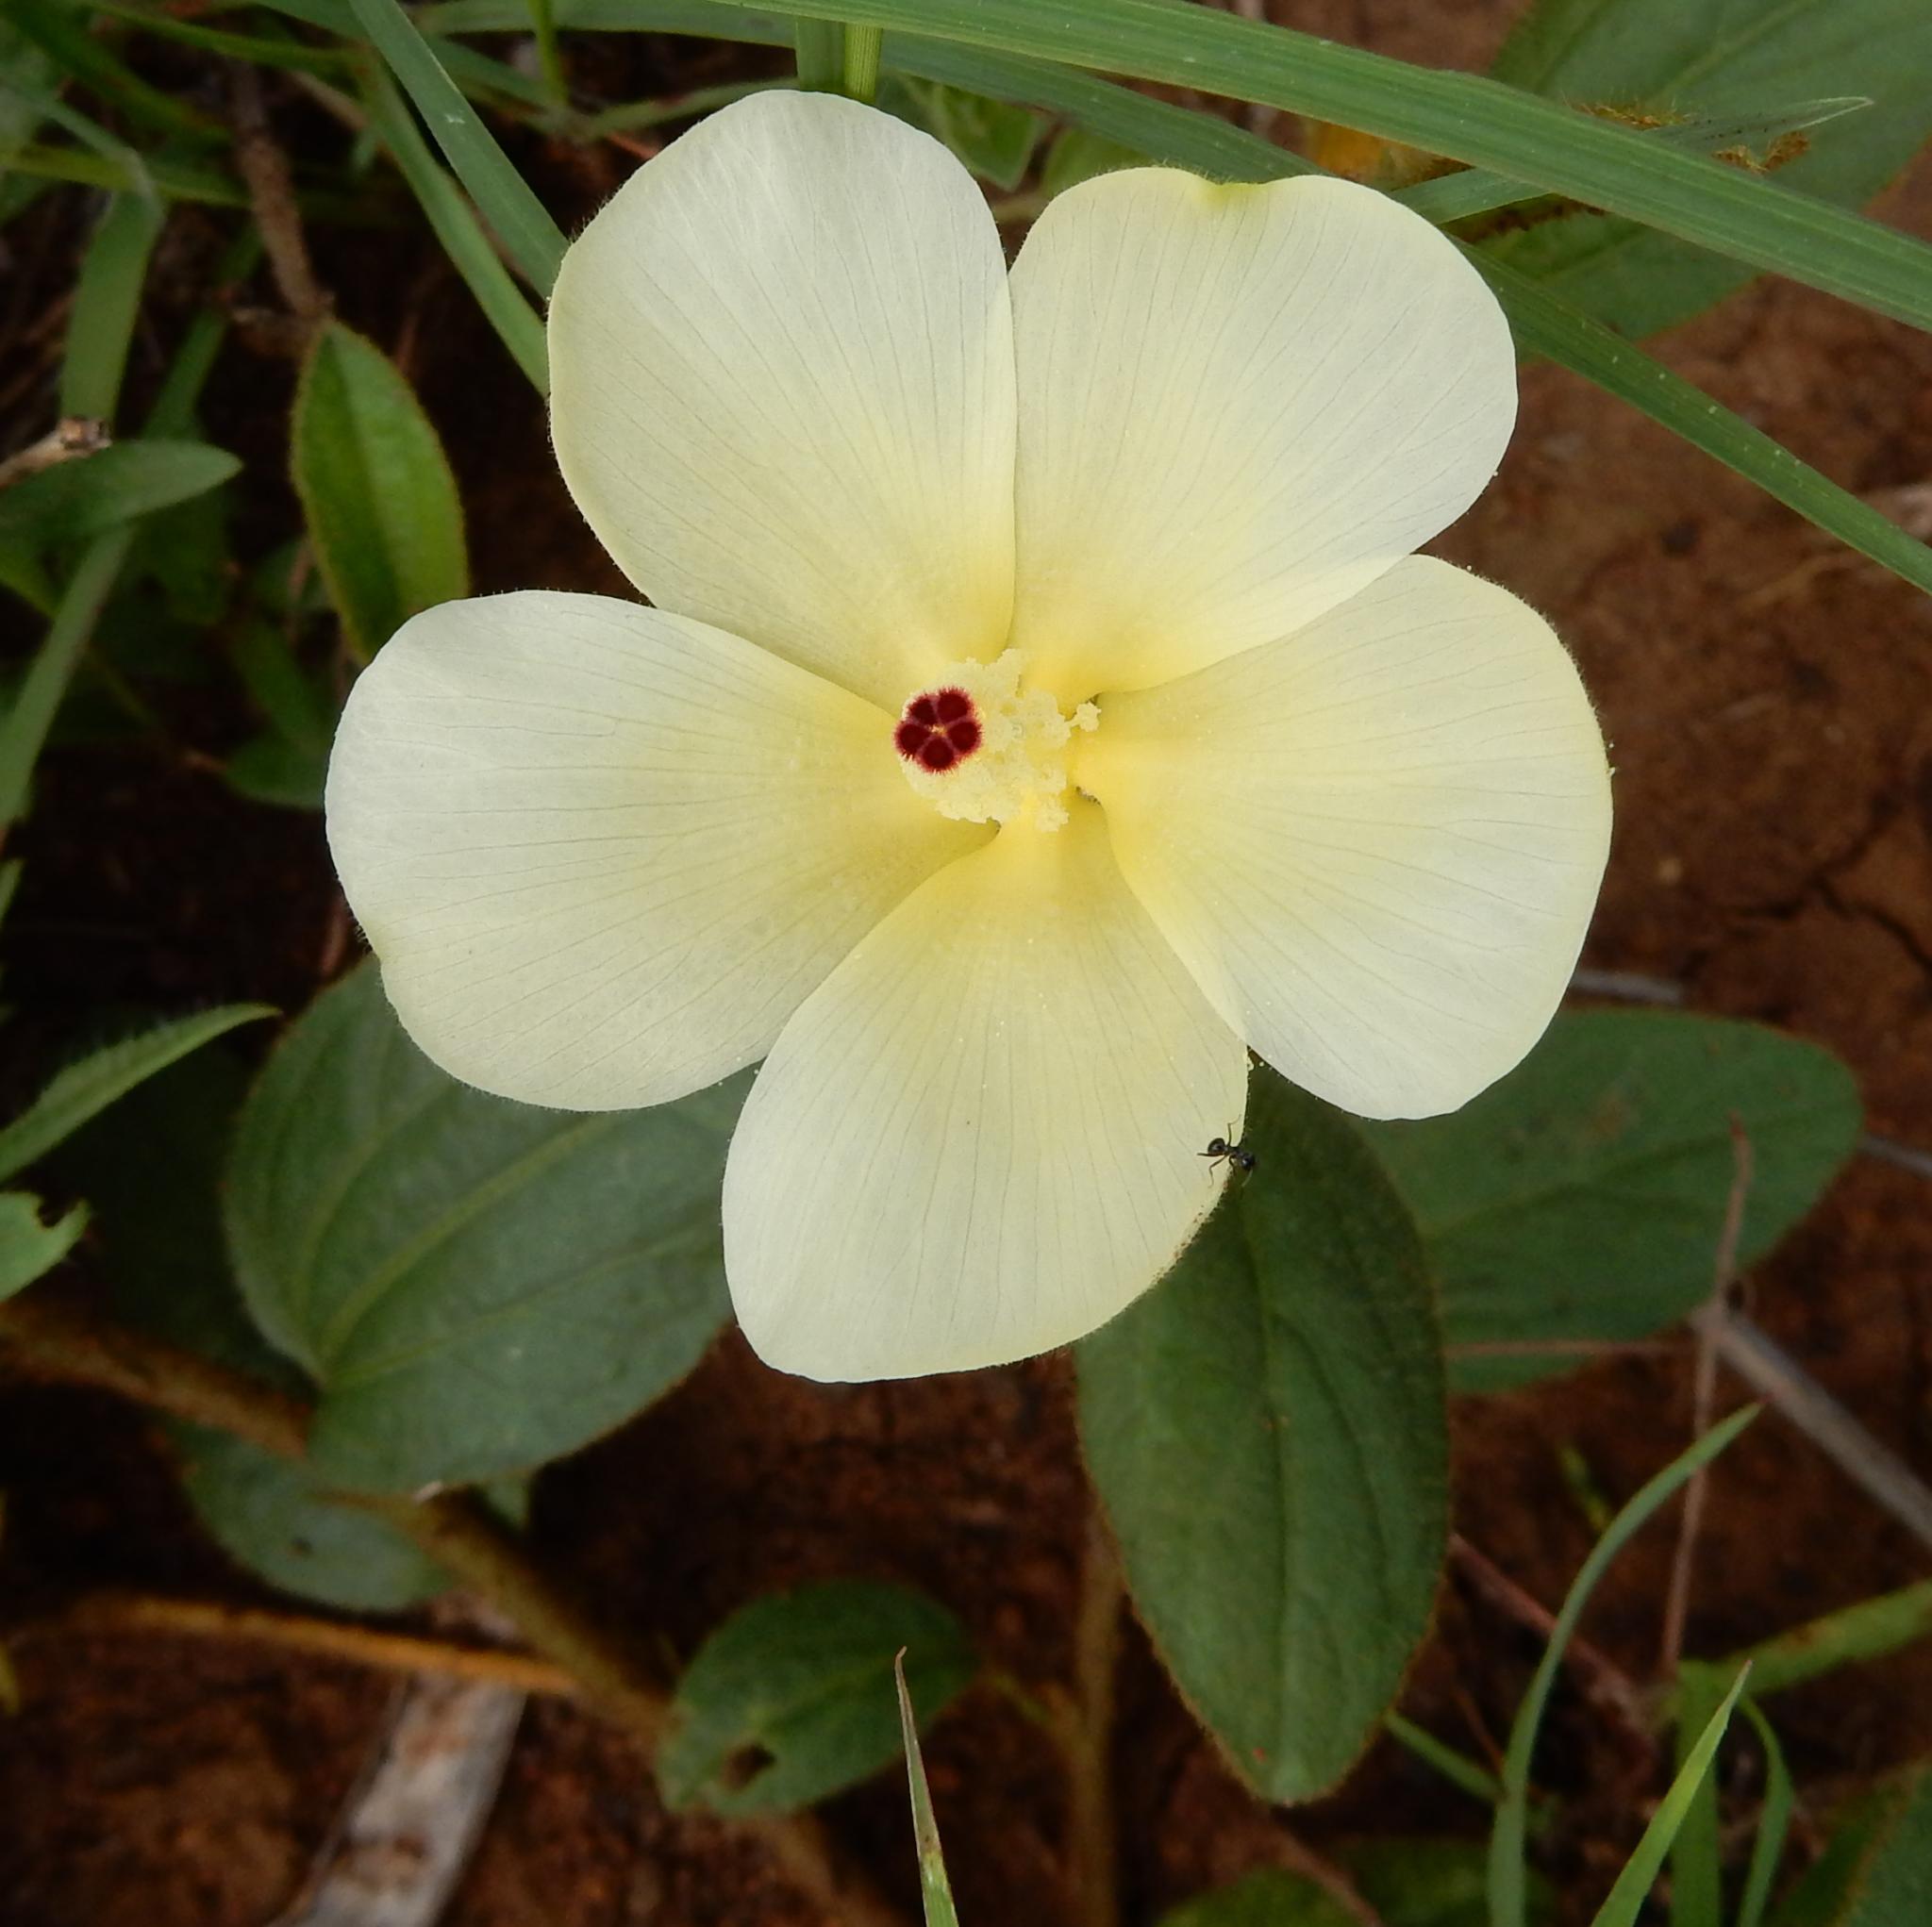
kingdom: Plantae
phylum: Tracheophyta
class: Magnoliopsida
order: Malvales
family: Malvaceae
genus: Hibiscus
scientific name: Hibiscus aethiopicus
